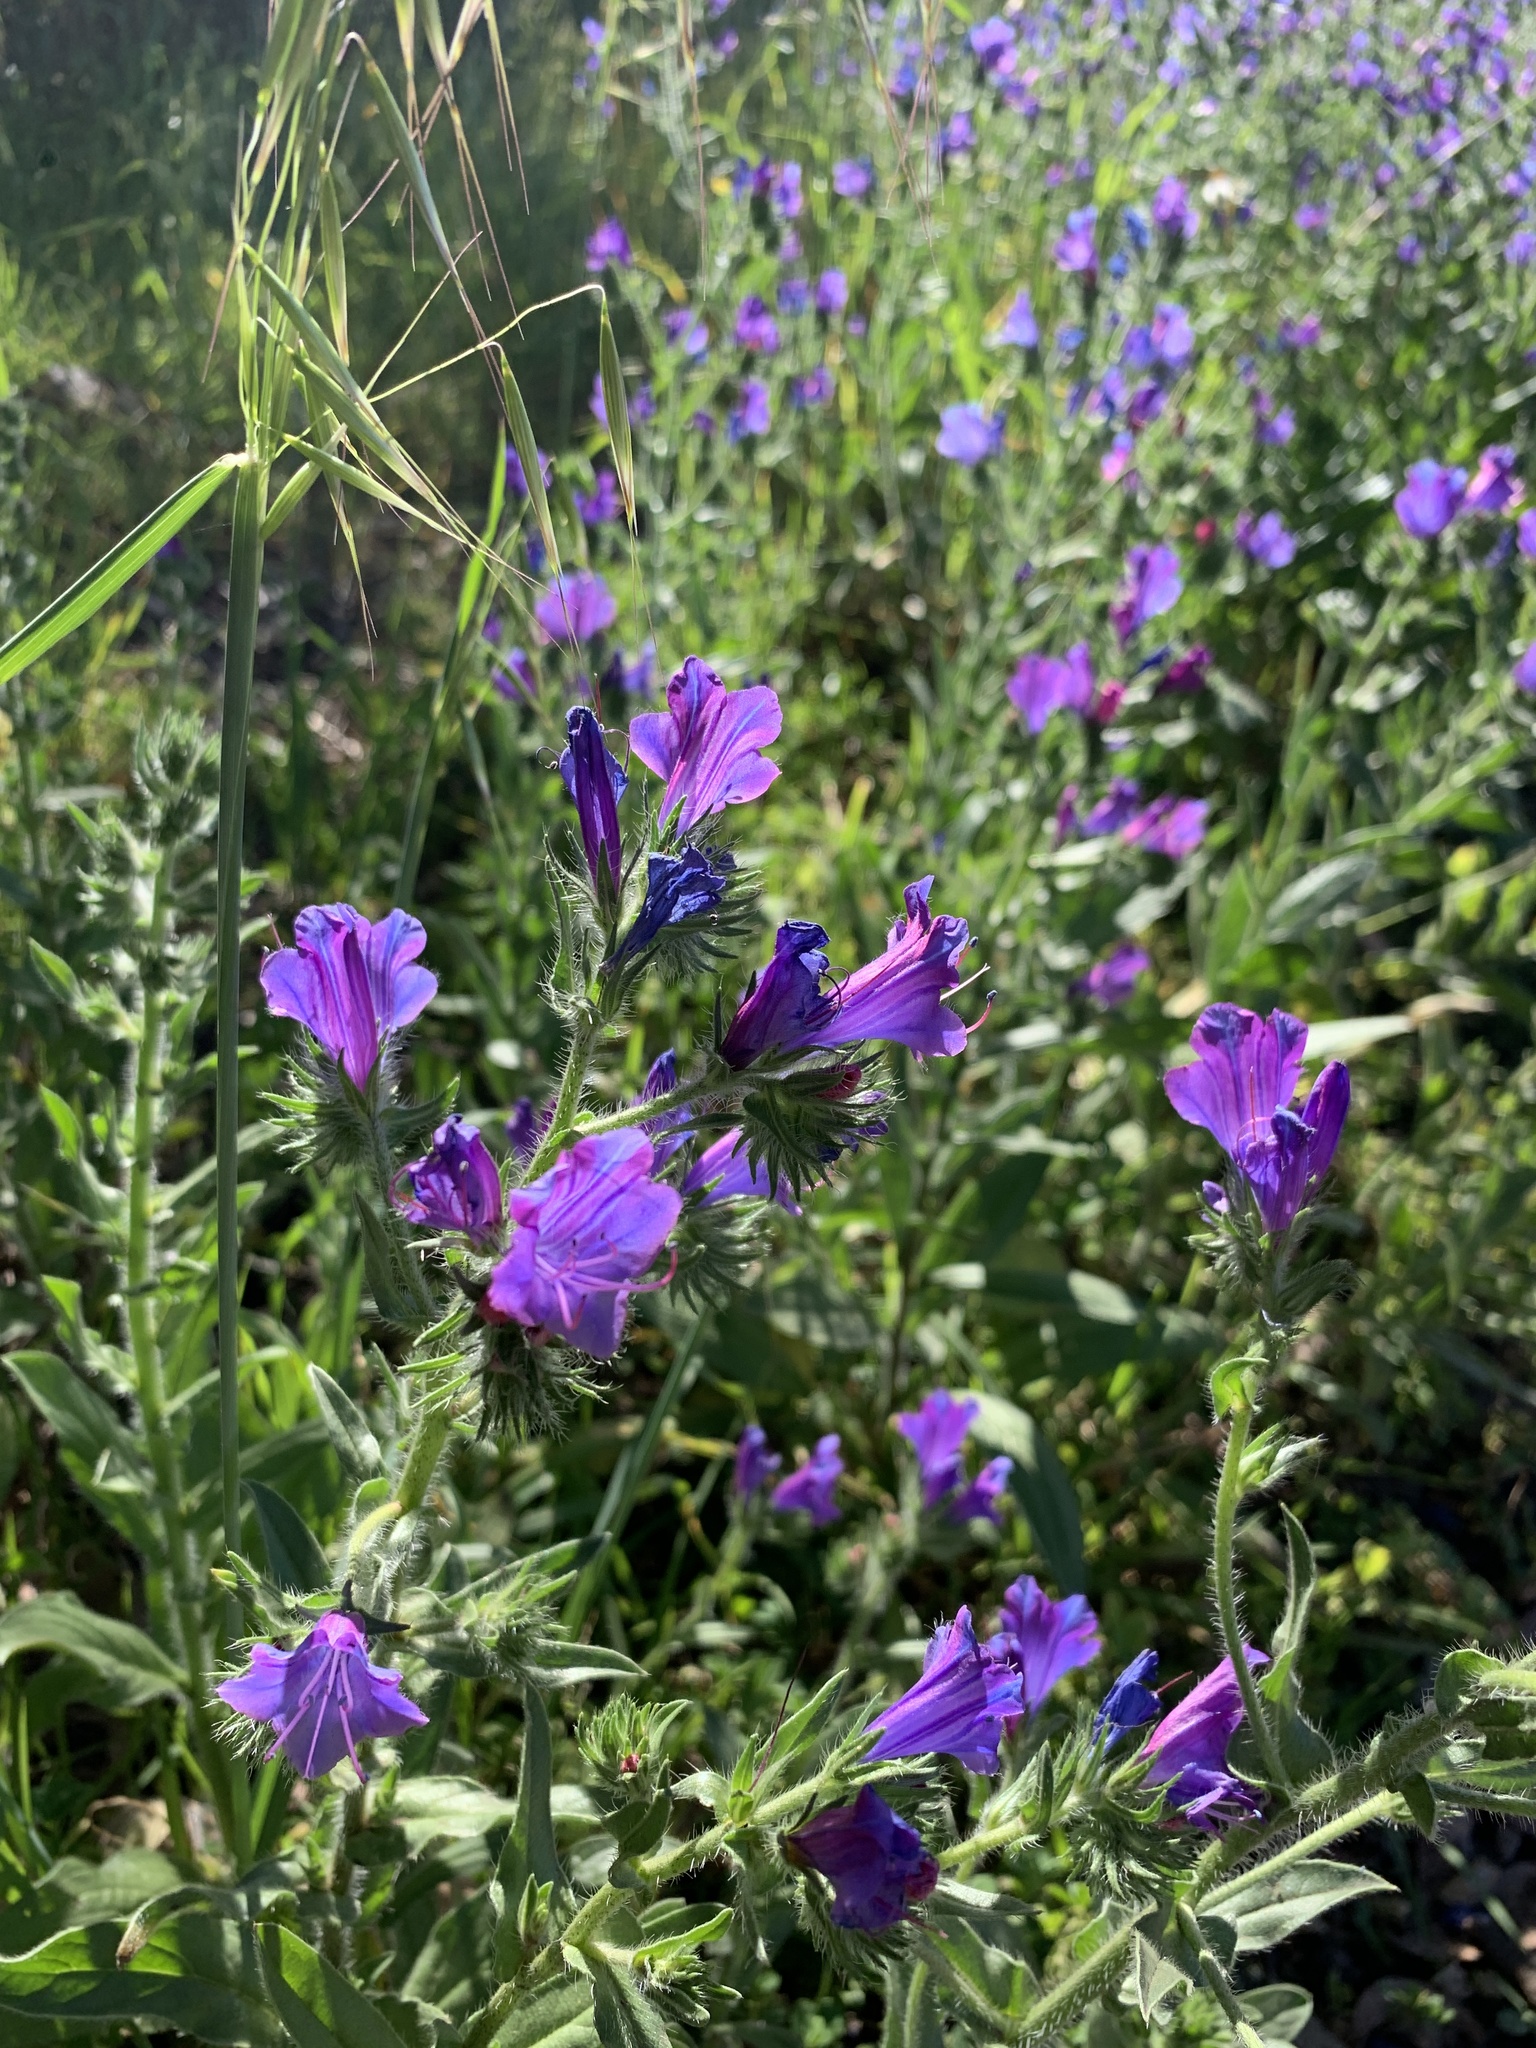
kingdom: Plantae
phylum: Tracheophyta
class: Magnoliopsida
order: Boraginales
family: Boraginaceae
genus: Echium
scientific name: Echium plantagineum
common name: Purple viper's-bugloss
